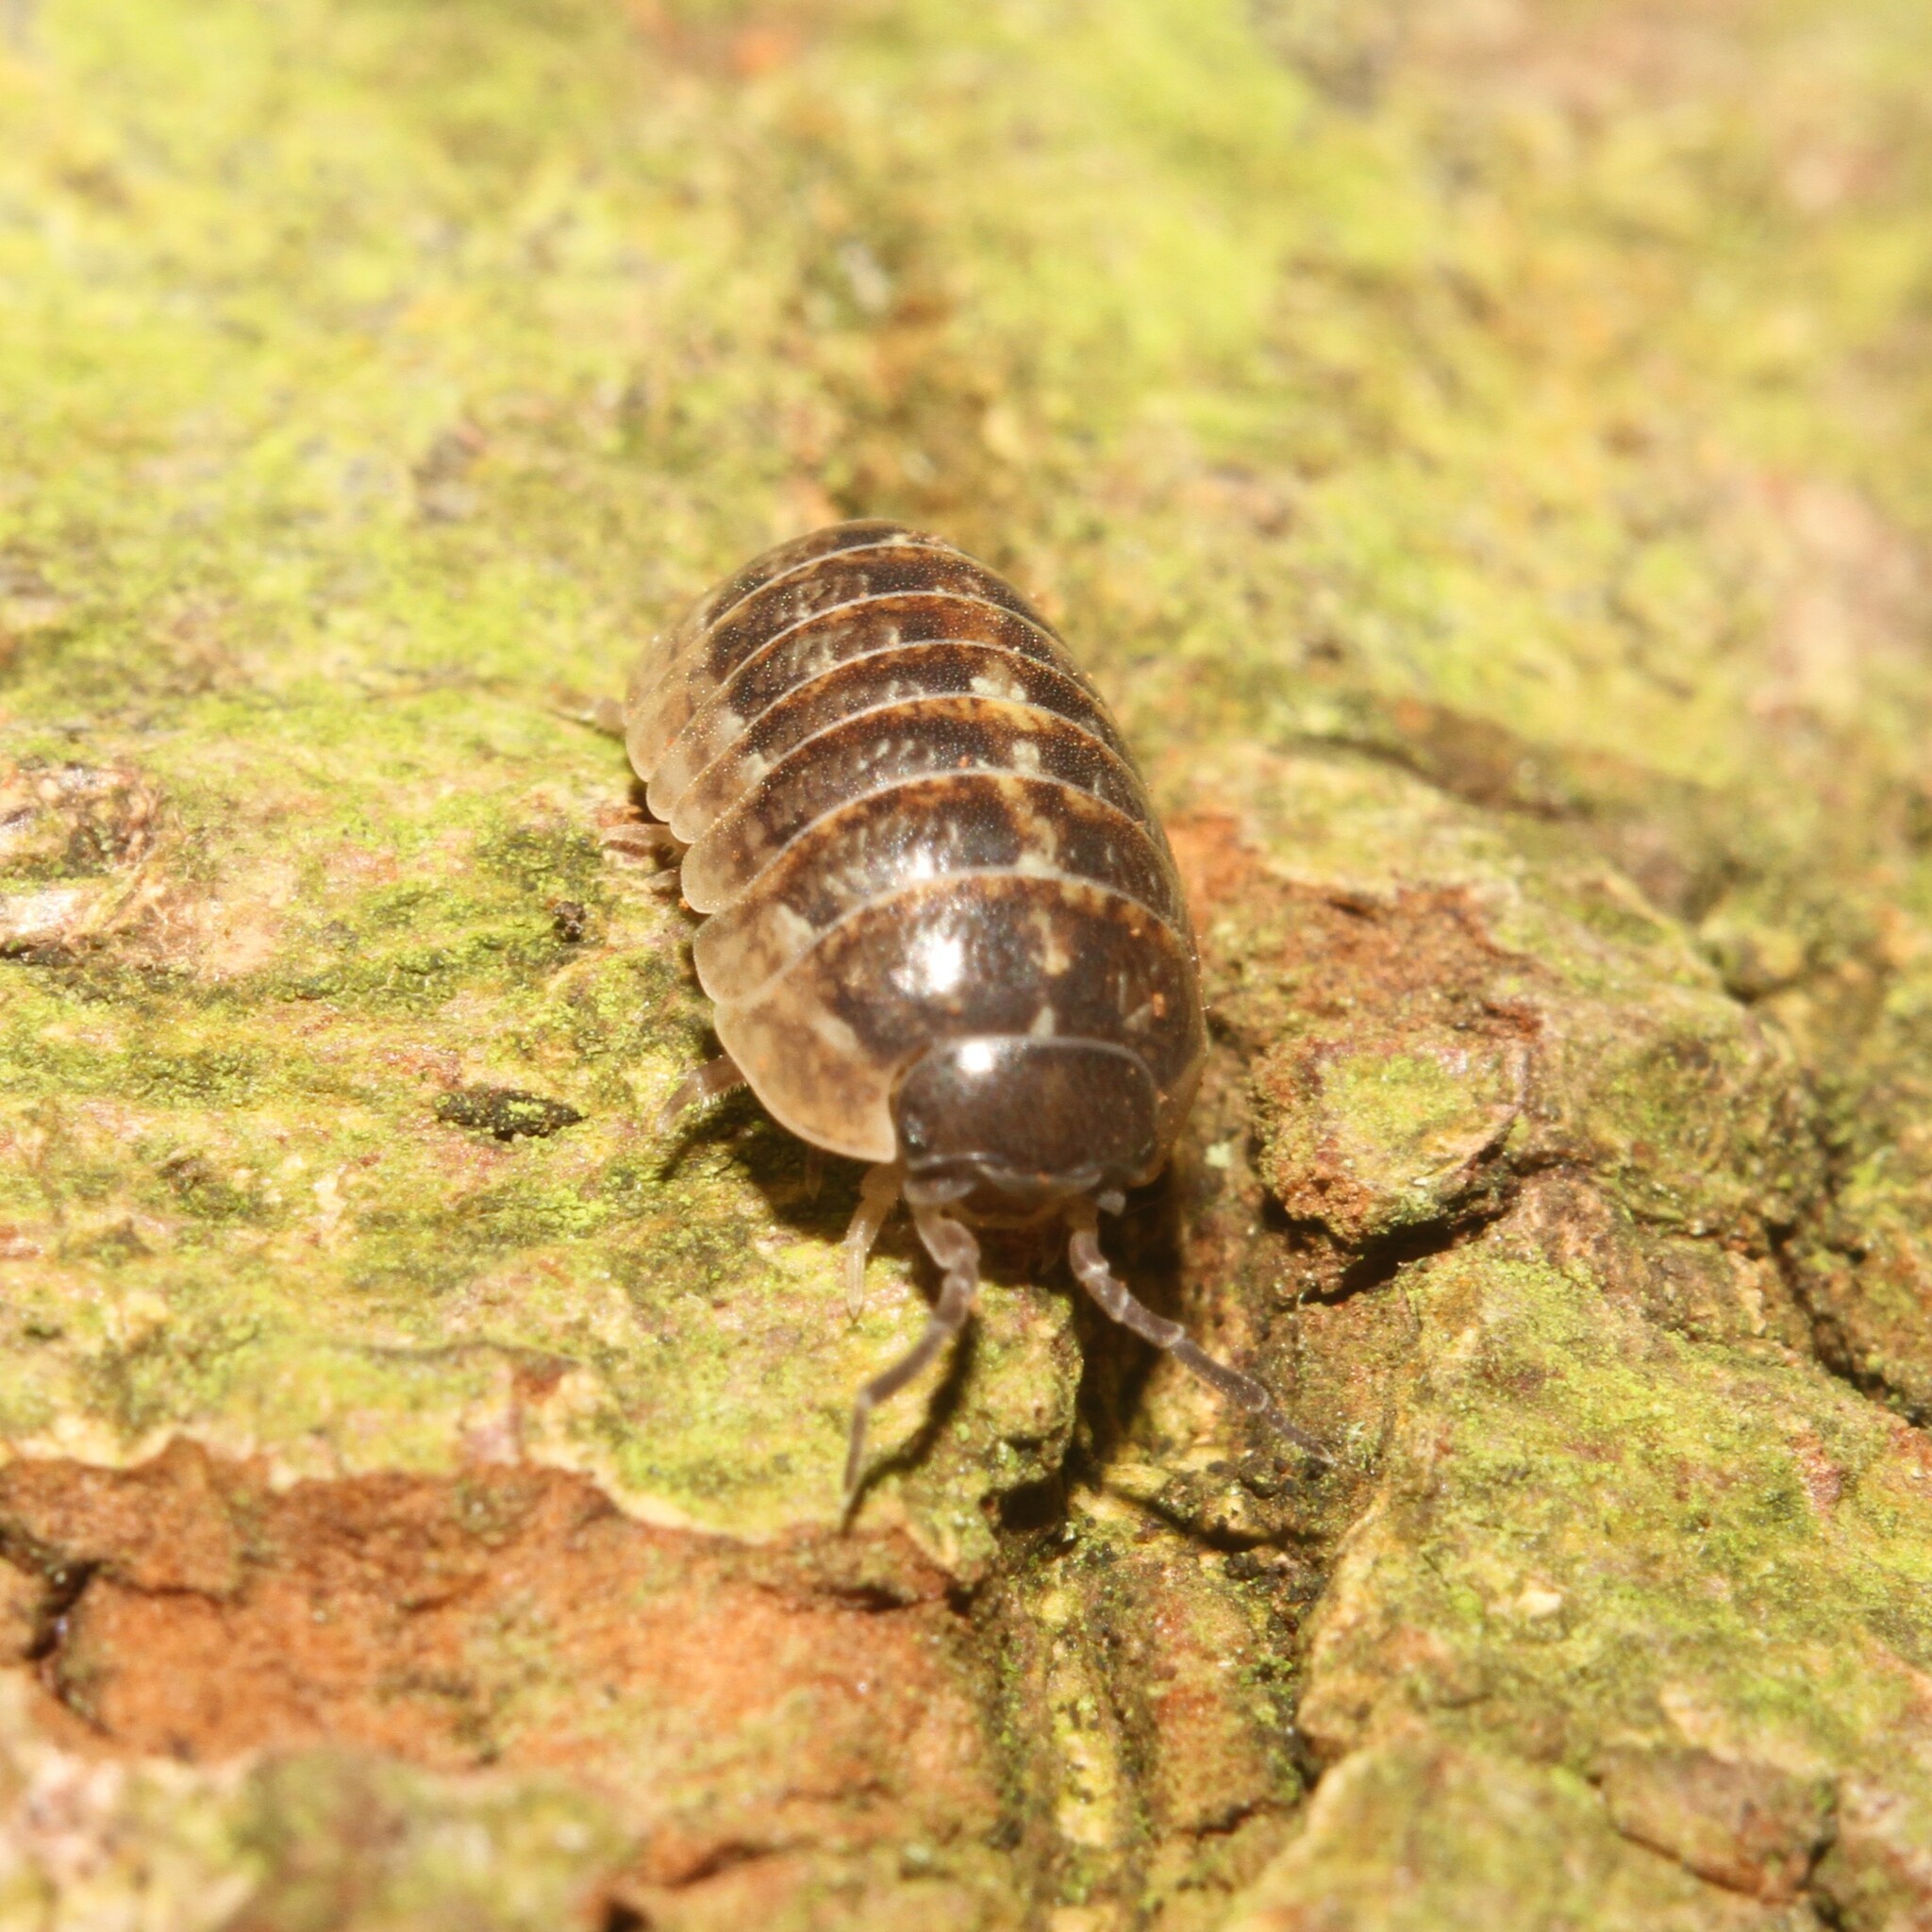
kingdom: Animalia
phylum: Arthropoda
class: Malacostraca
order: Isopoda
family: Armadillidiidae
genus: Armadillidium
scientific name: Armadillidium vulgare
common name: Common pill woodlouse
